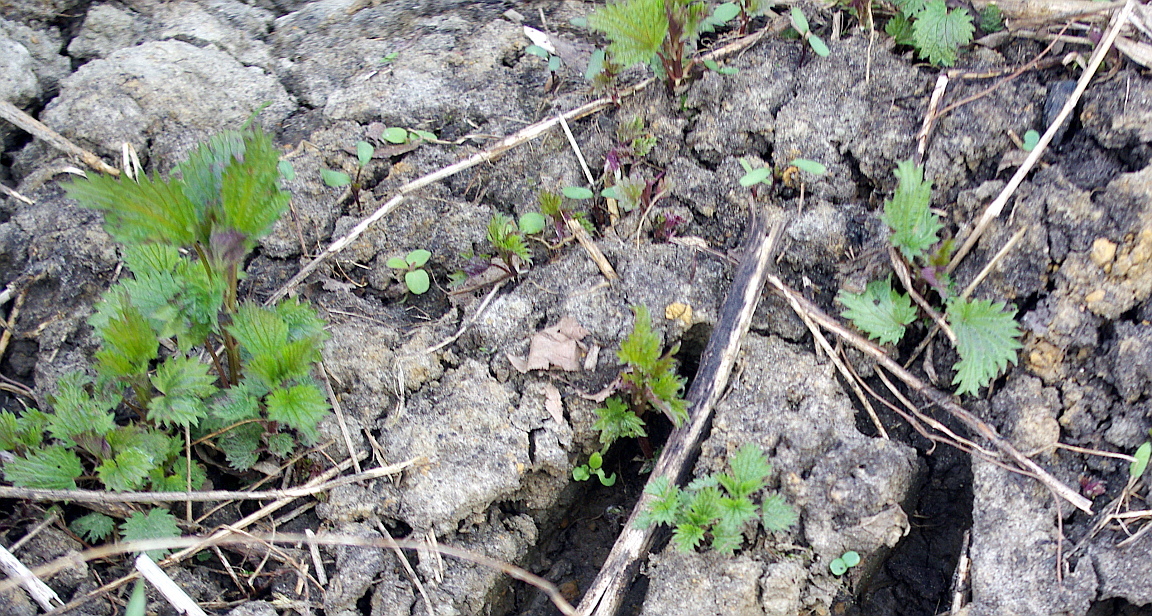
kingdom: Plantae
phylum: Tracheophyta
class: Magnoliopsida
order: Rosales
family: Urticaceae
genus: Urtica
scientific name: Urtica dioica
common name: Common nettle
